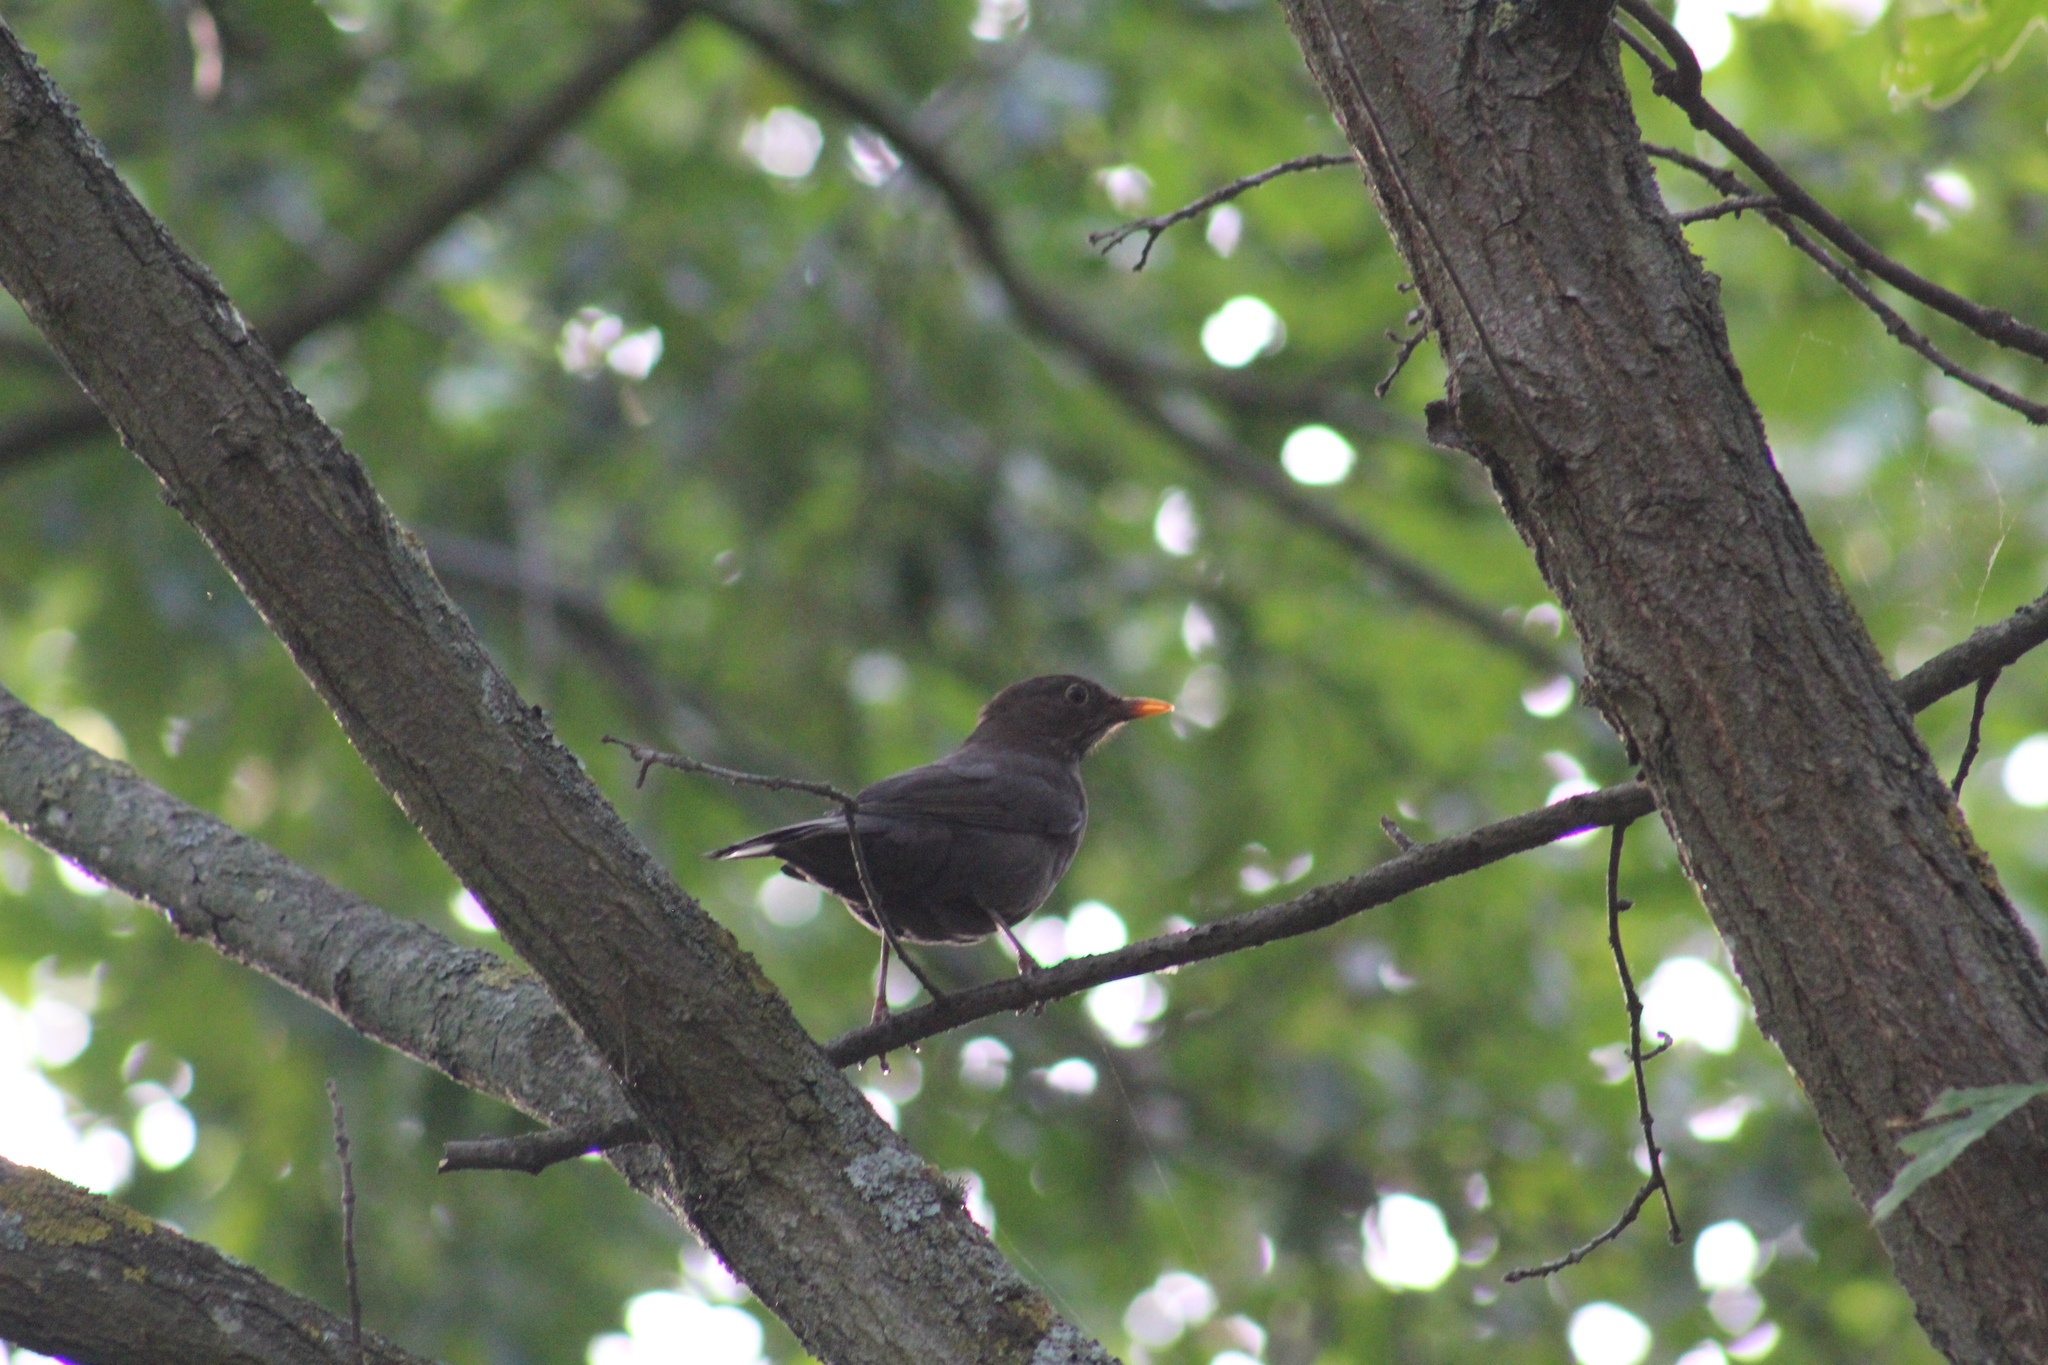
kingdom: Animalia
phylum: Chordata
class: Aves
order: Passeriformes
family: Turdidae
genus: Turdus
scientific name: Turdus merula
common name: Common blackbird
